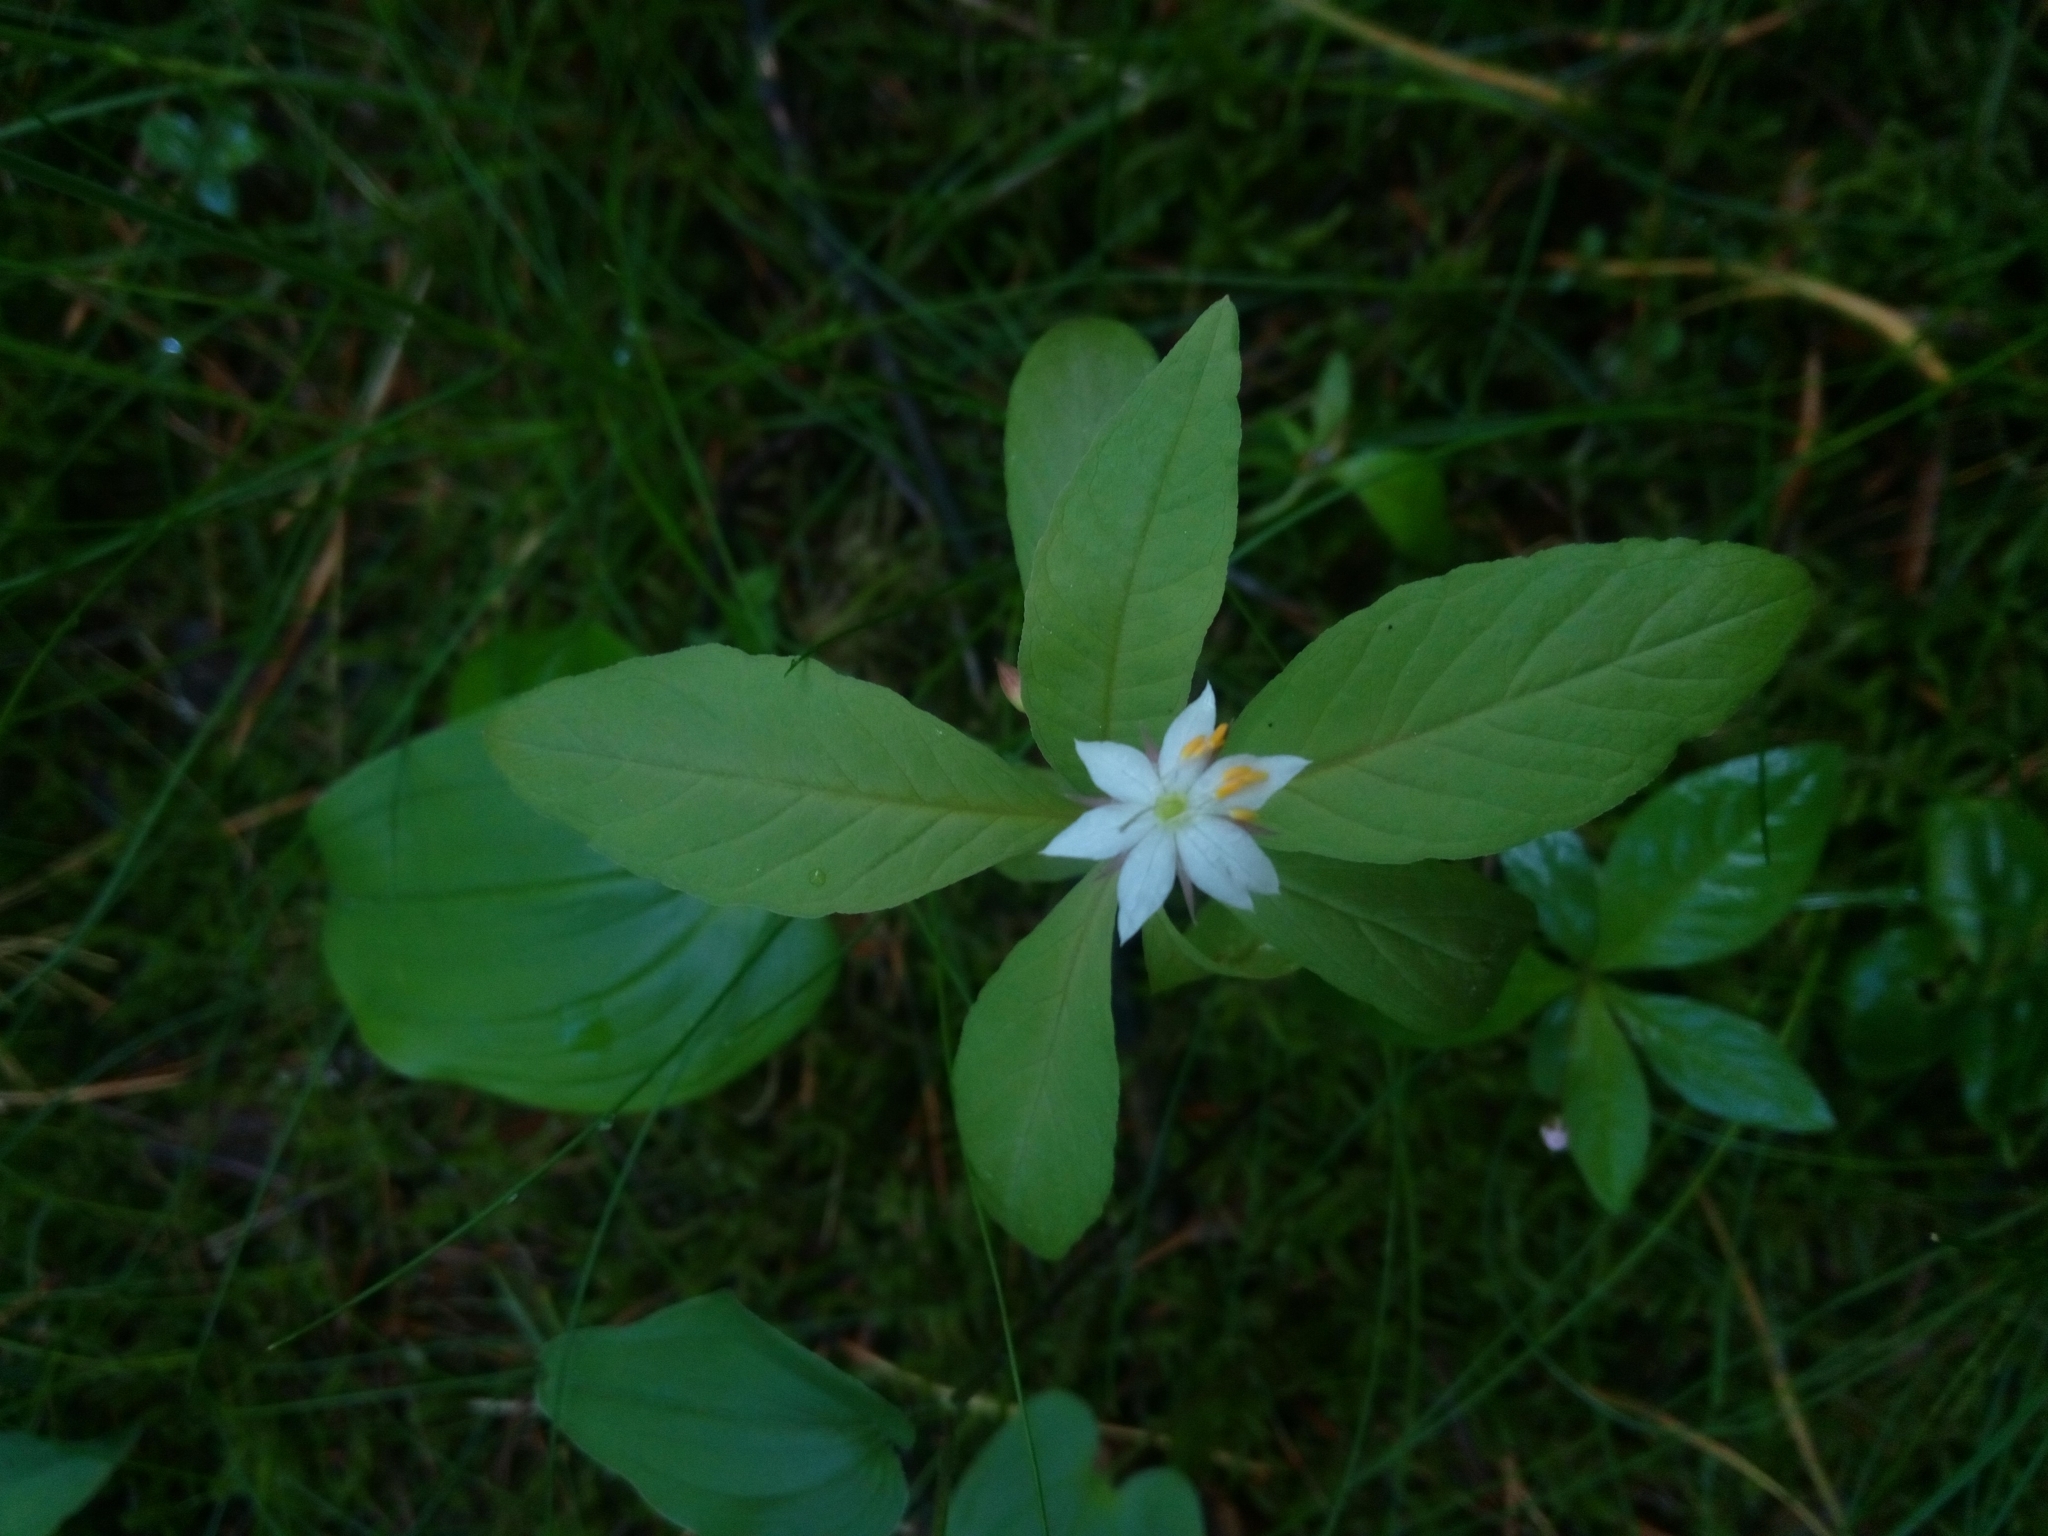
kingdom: Plantae
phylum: Tracheophyta
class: Magnoliopsida
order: Ericales
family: Primulaceae
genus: Lysimachia
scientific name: Lysimachia europaea
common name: Arctic starflower
